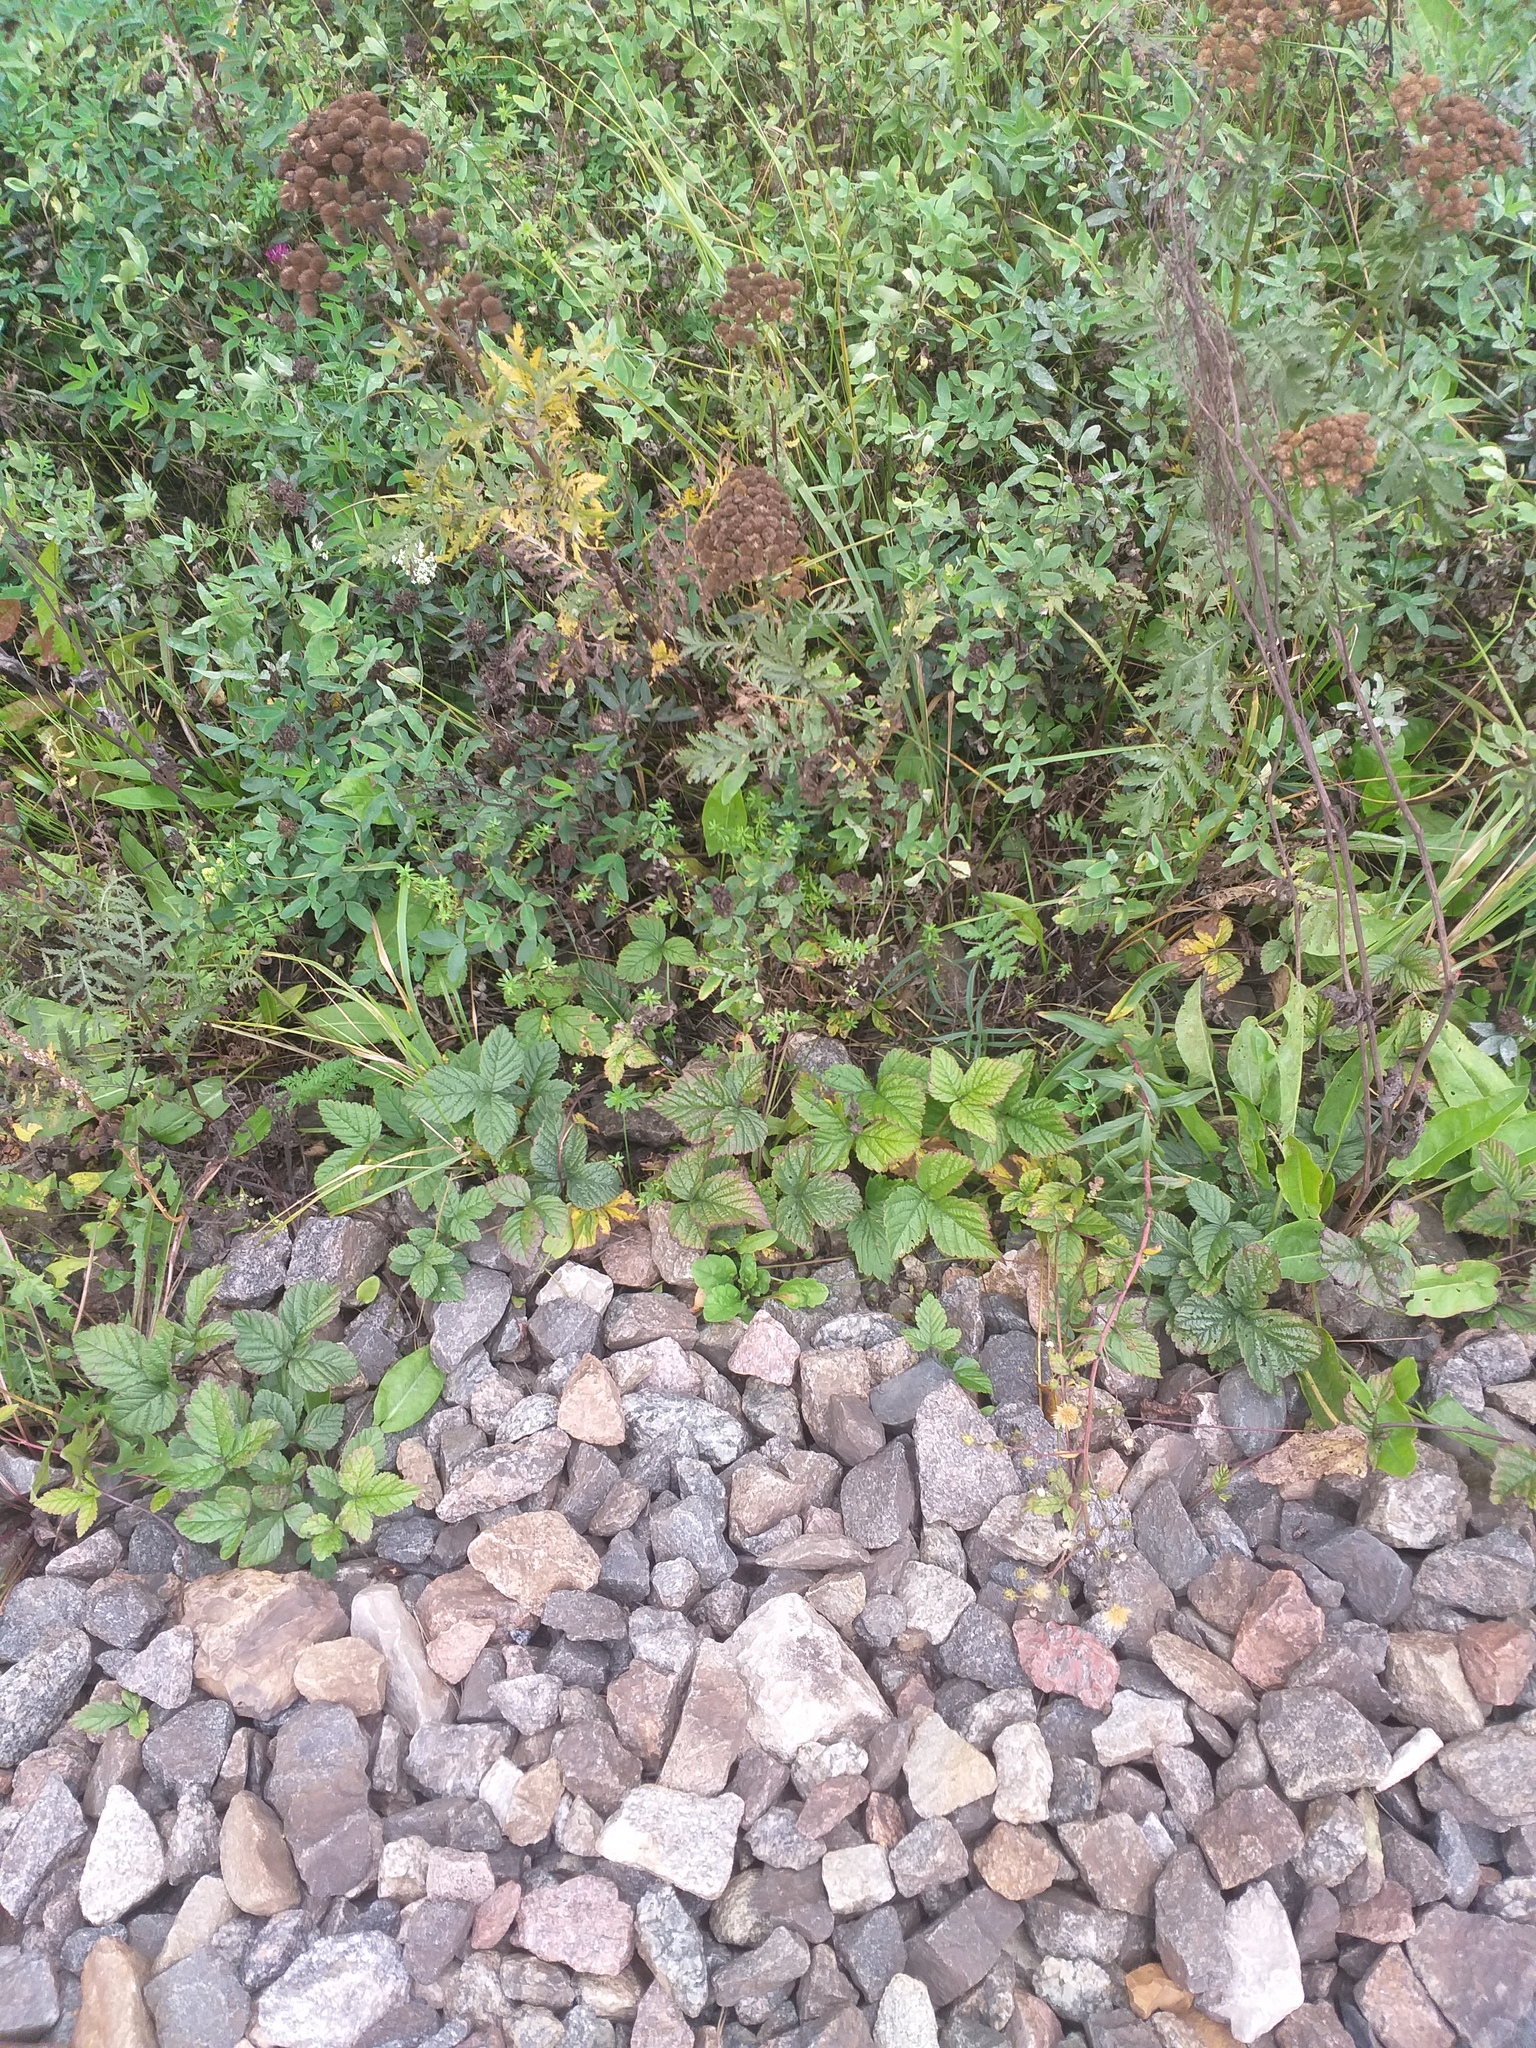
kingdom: Plantae
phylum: Tracheophyta
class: Magnoliopsida
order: Rosales
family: Rosaceae
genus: Rubus
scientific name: Rubus saxatilis
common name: Stone bramble
